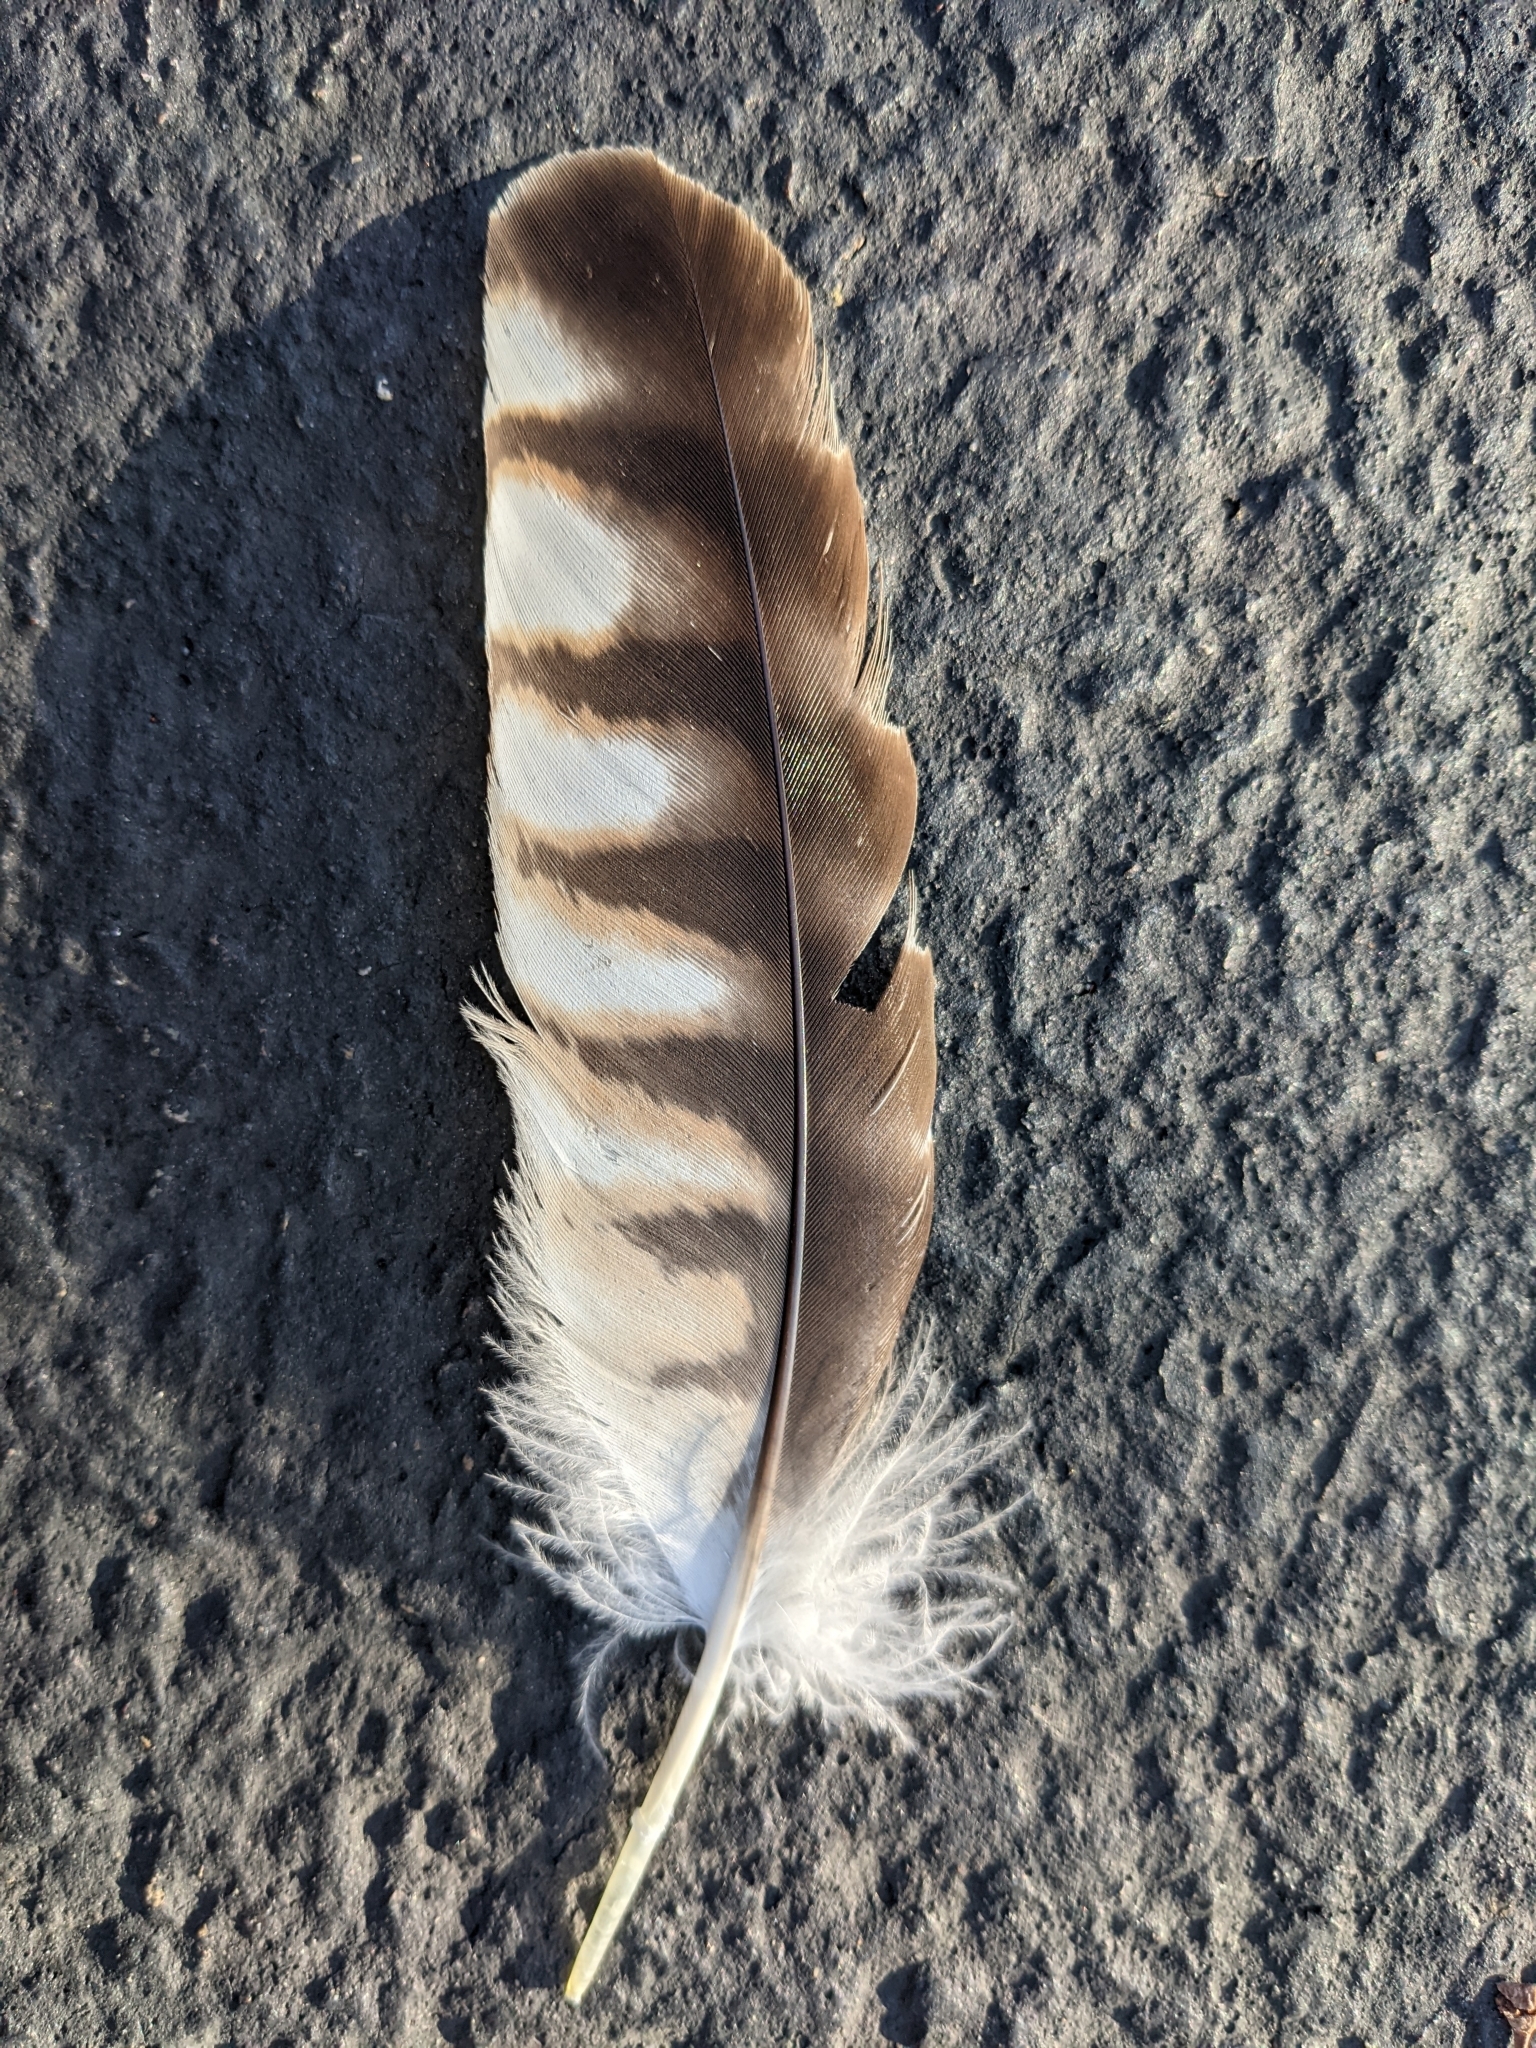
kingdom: Animalia
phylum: Chordata
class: Aves
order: Accipitriformes
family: Accipitridae
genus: Buteo
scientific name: Buteo lineatus
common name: Red-shouldered hawk
